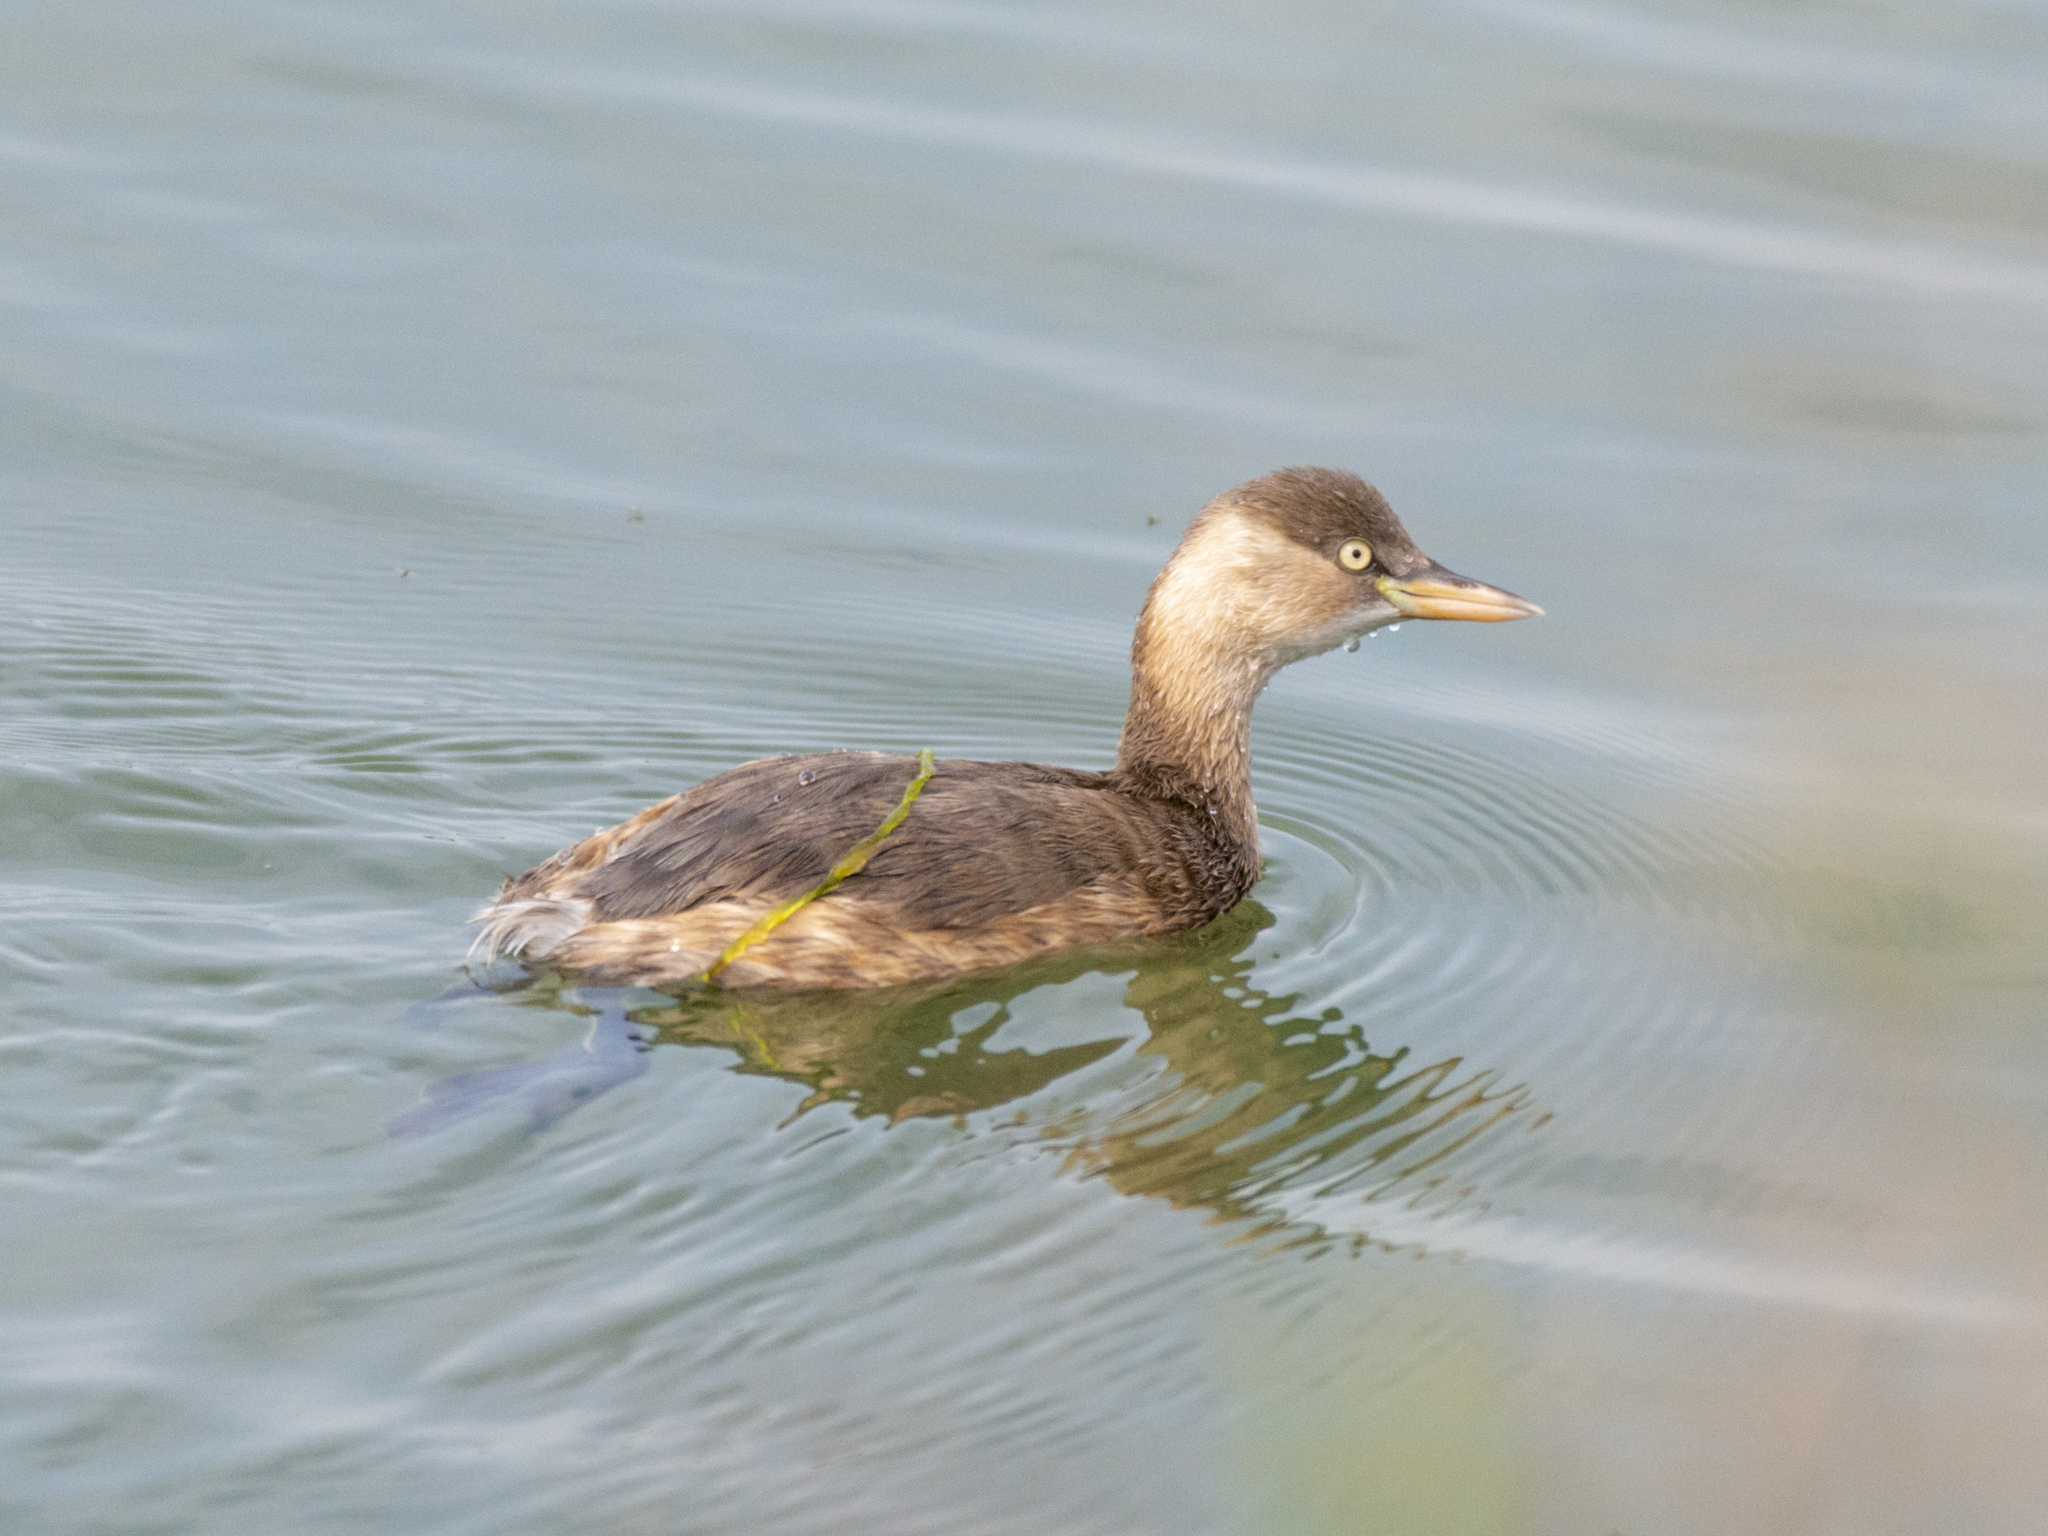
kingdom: Animalia
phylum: Chordata
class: Aves
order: Podicipediformes
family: Podicipedidae
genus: Tachybaptus
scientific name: Tachybaptus ruficollis
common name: Little grebe
